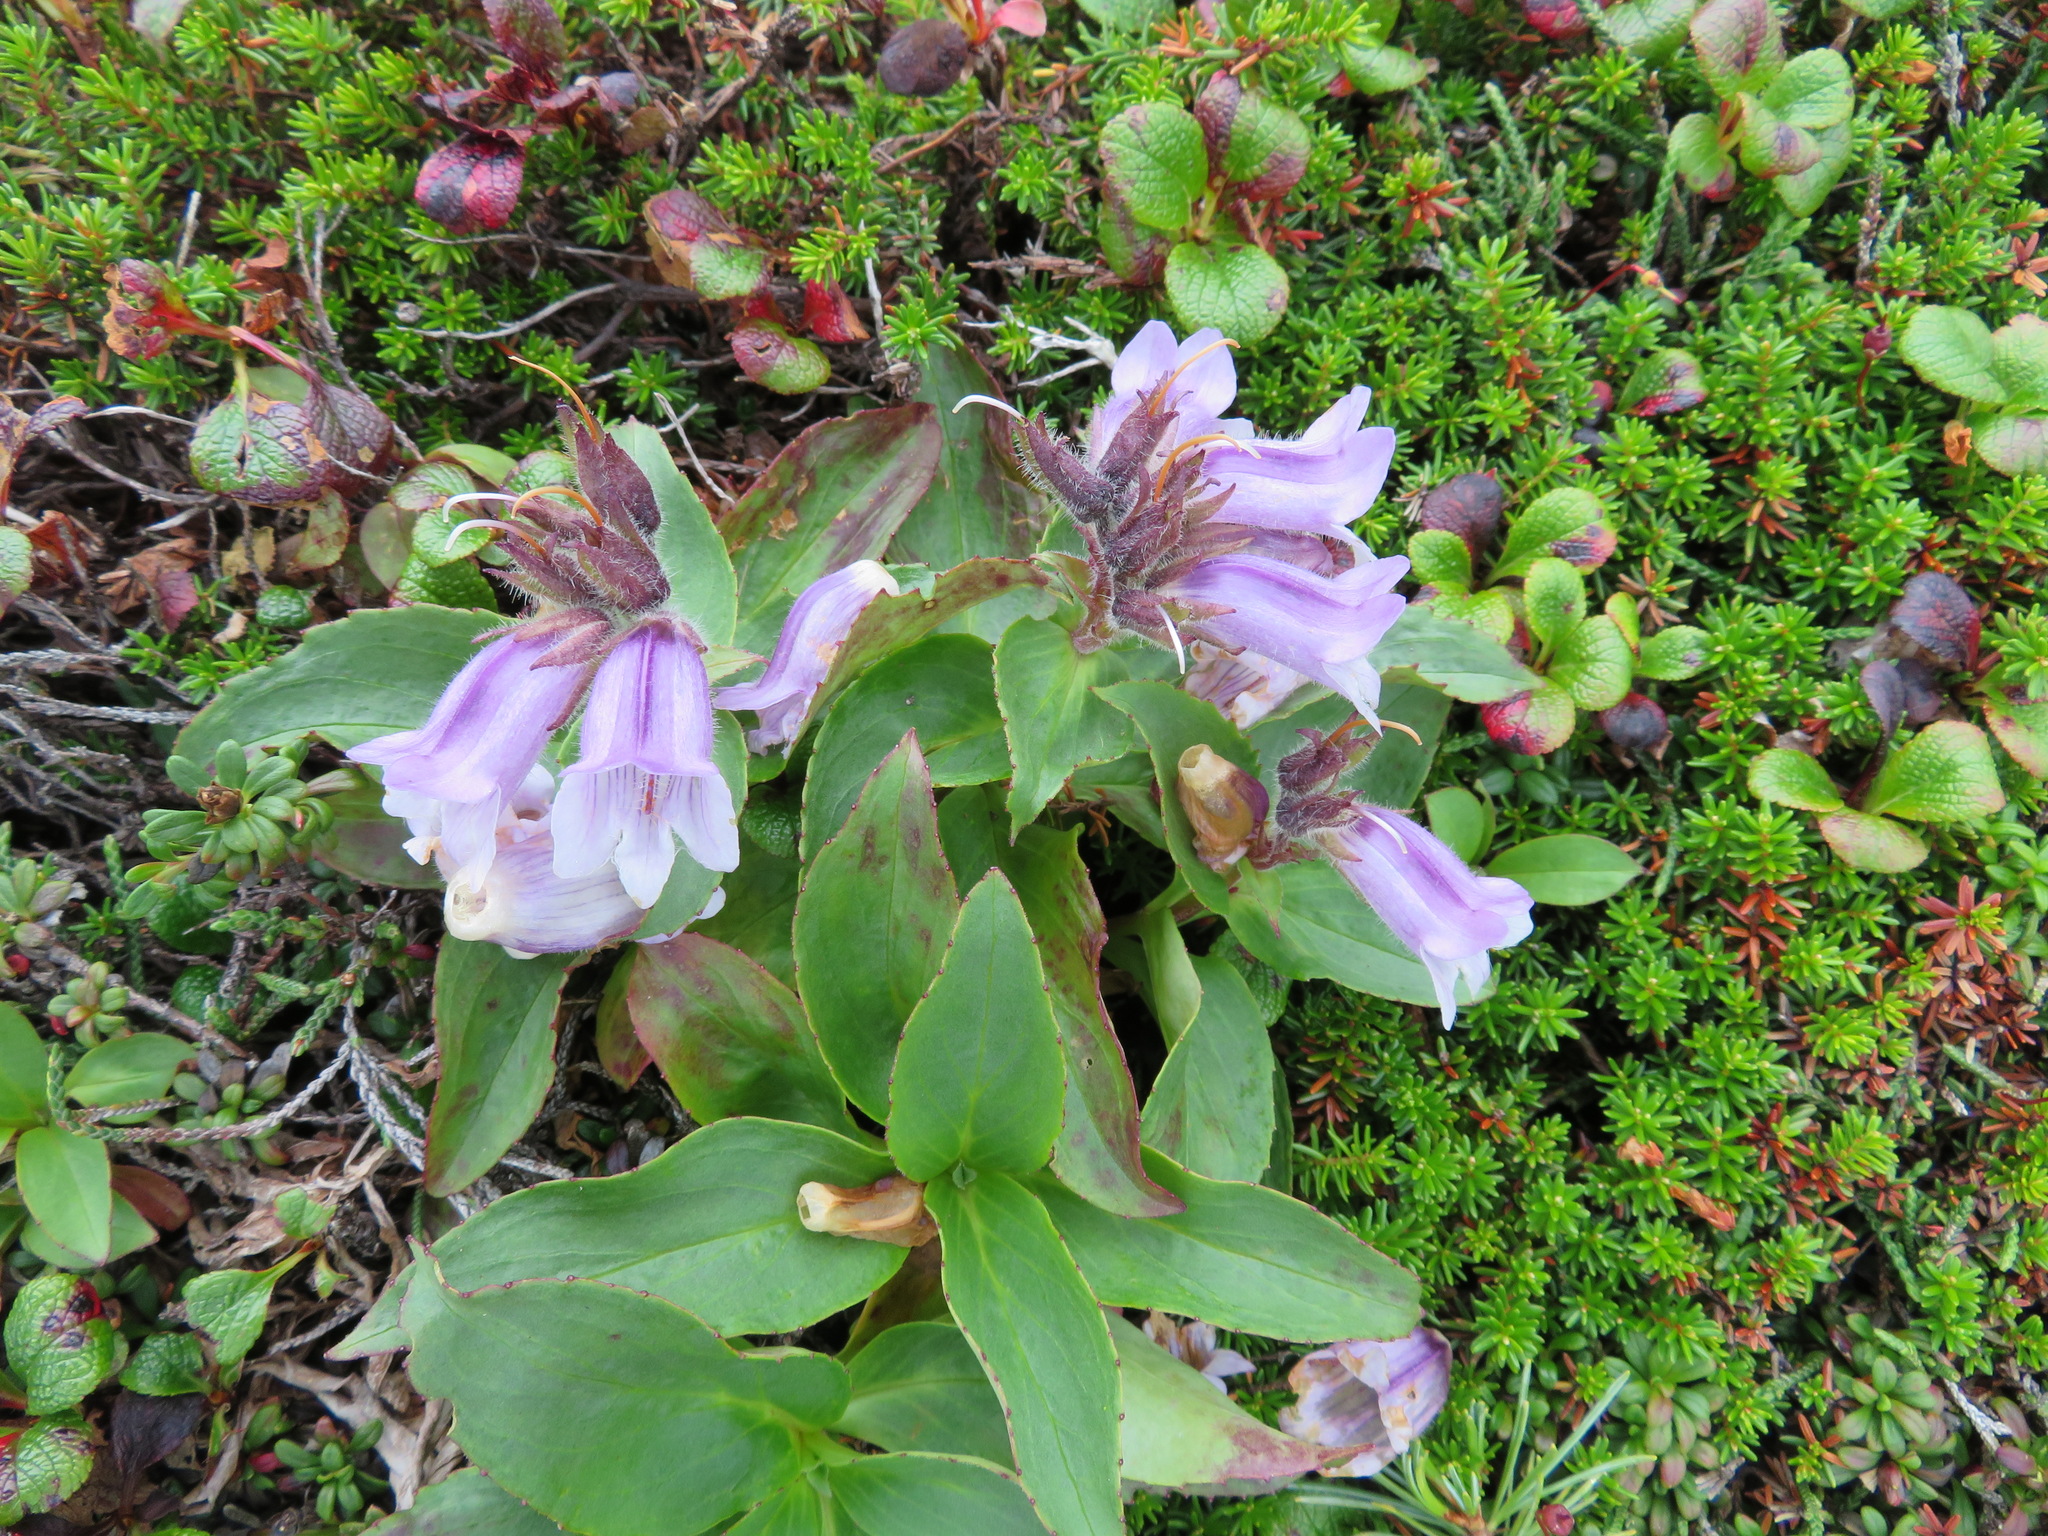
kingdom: Plantae
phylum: Tracheophyta
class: Magnoliopsida
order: Lamiales
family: Plantaginaceae
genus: Pennellianthus
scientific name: Pennellianthus frutescens
